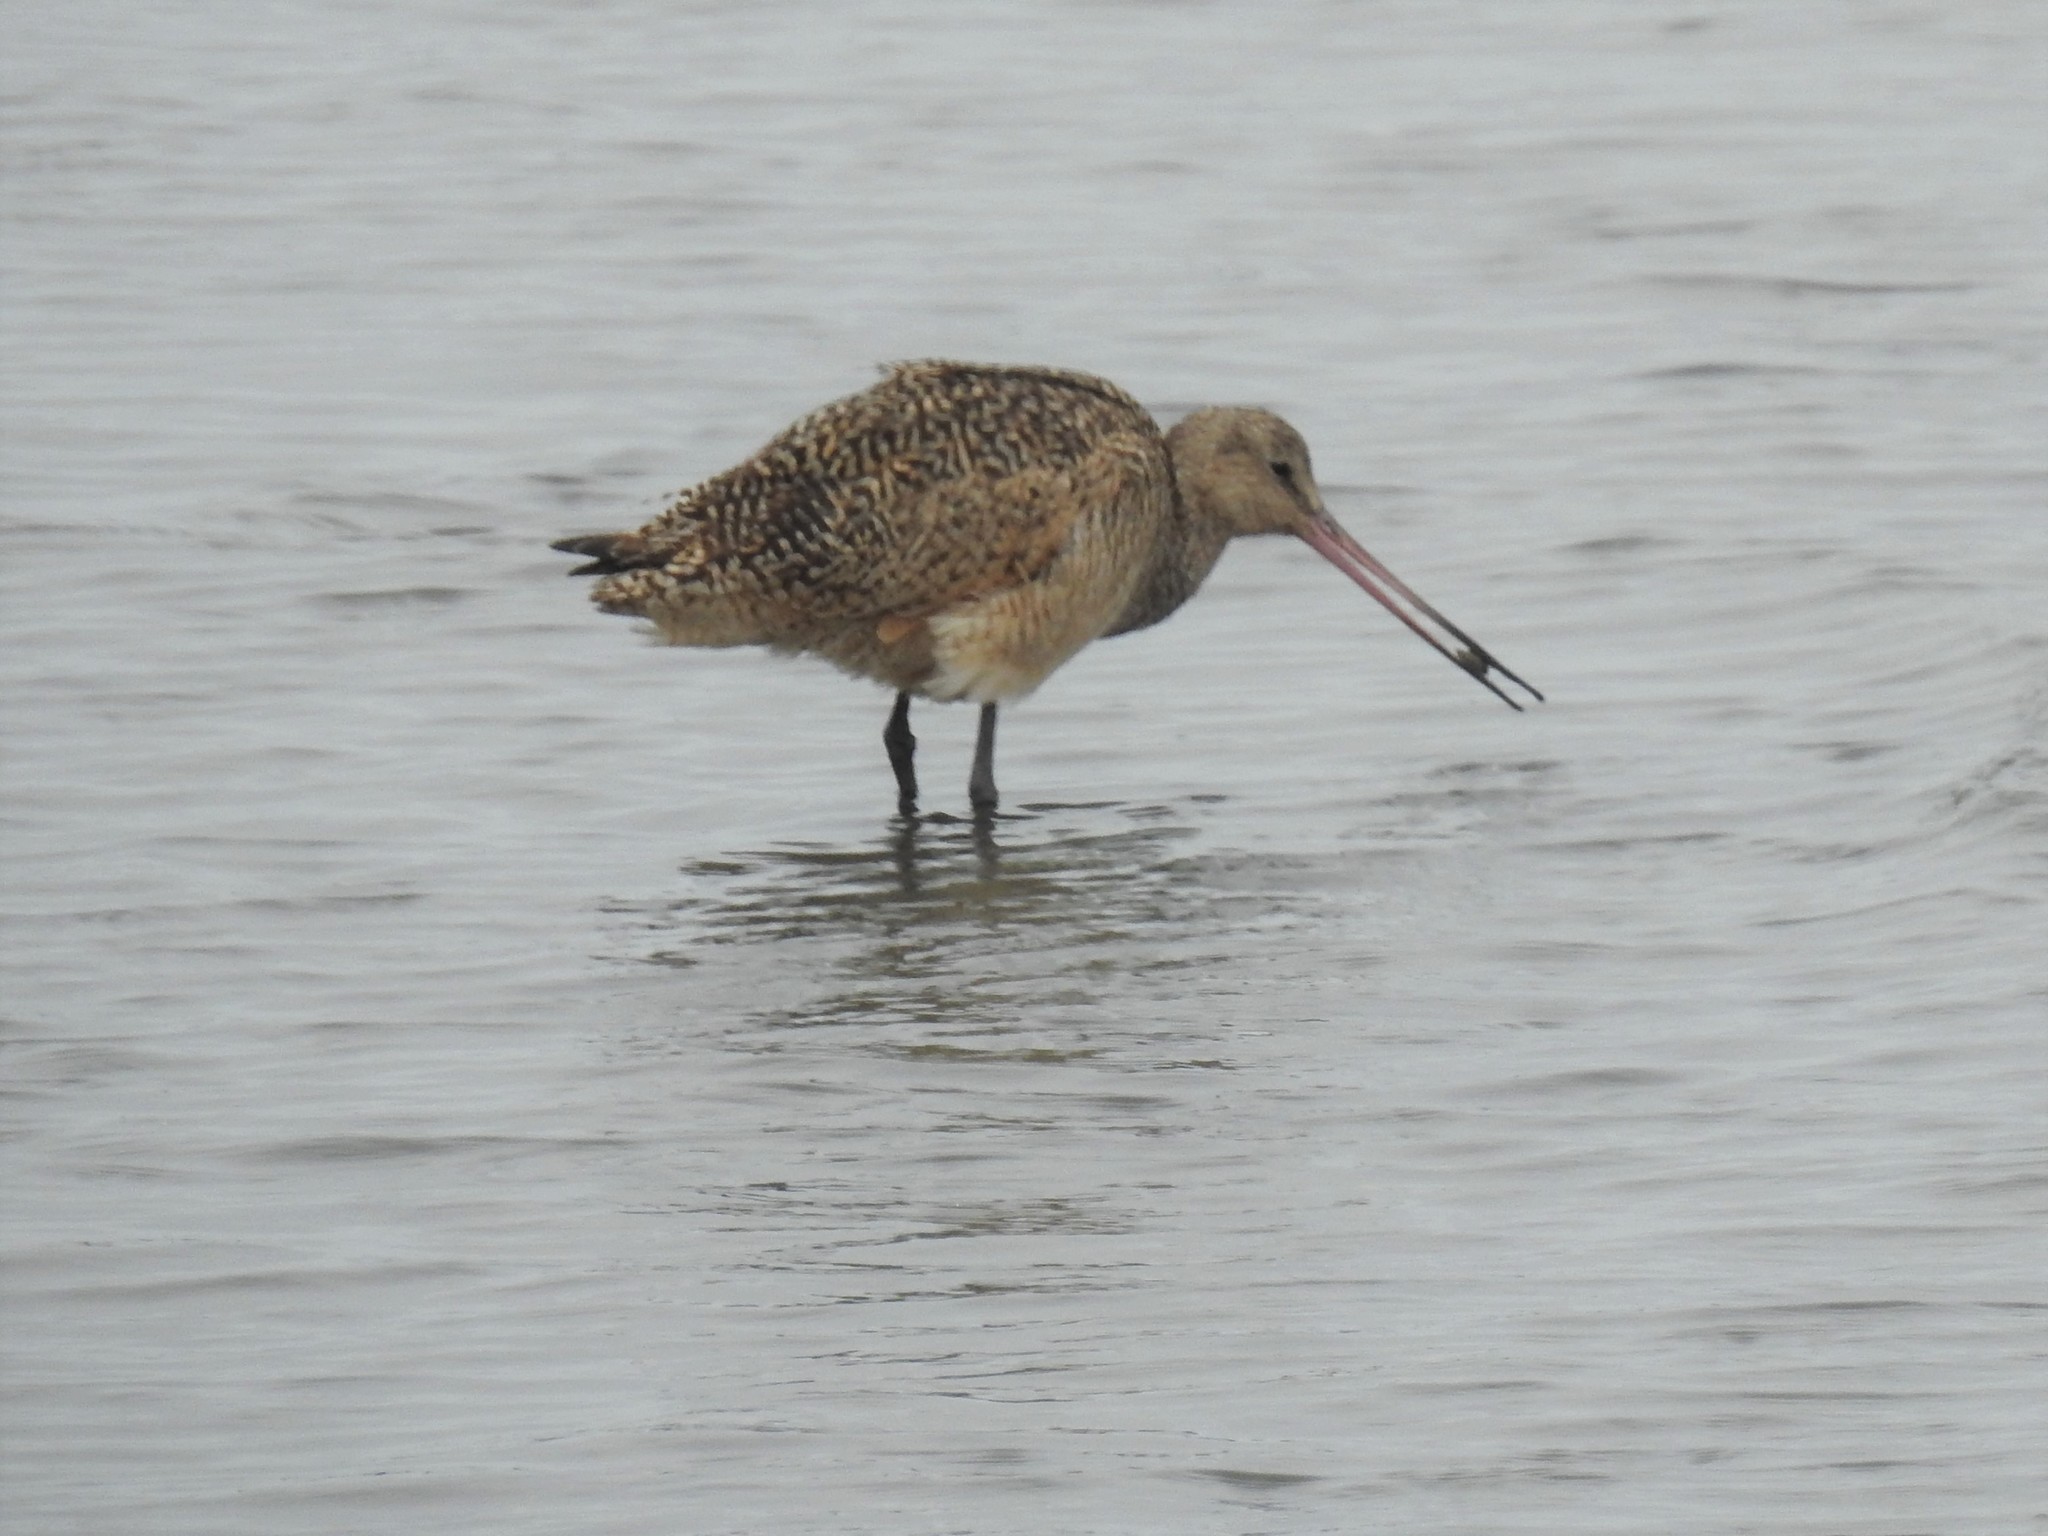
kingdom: Animalia
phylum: Chordata
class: Aves
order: Charadriiformes
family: Scolopacidae
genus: Limosa
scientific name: Limosa fedoa
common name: Marbled godwit
